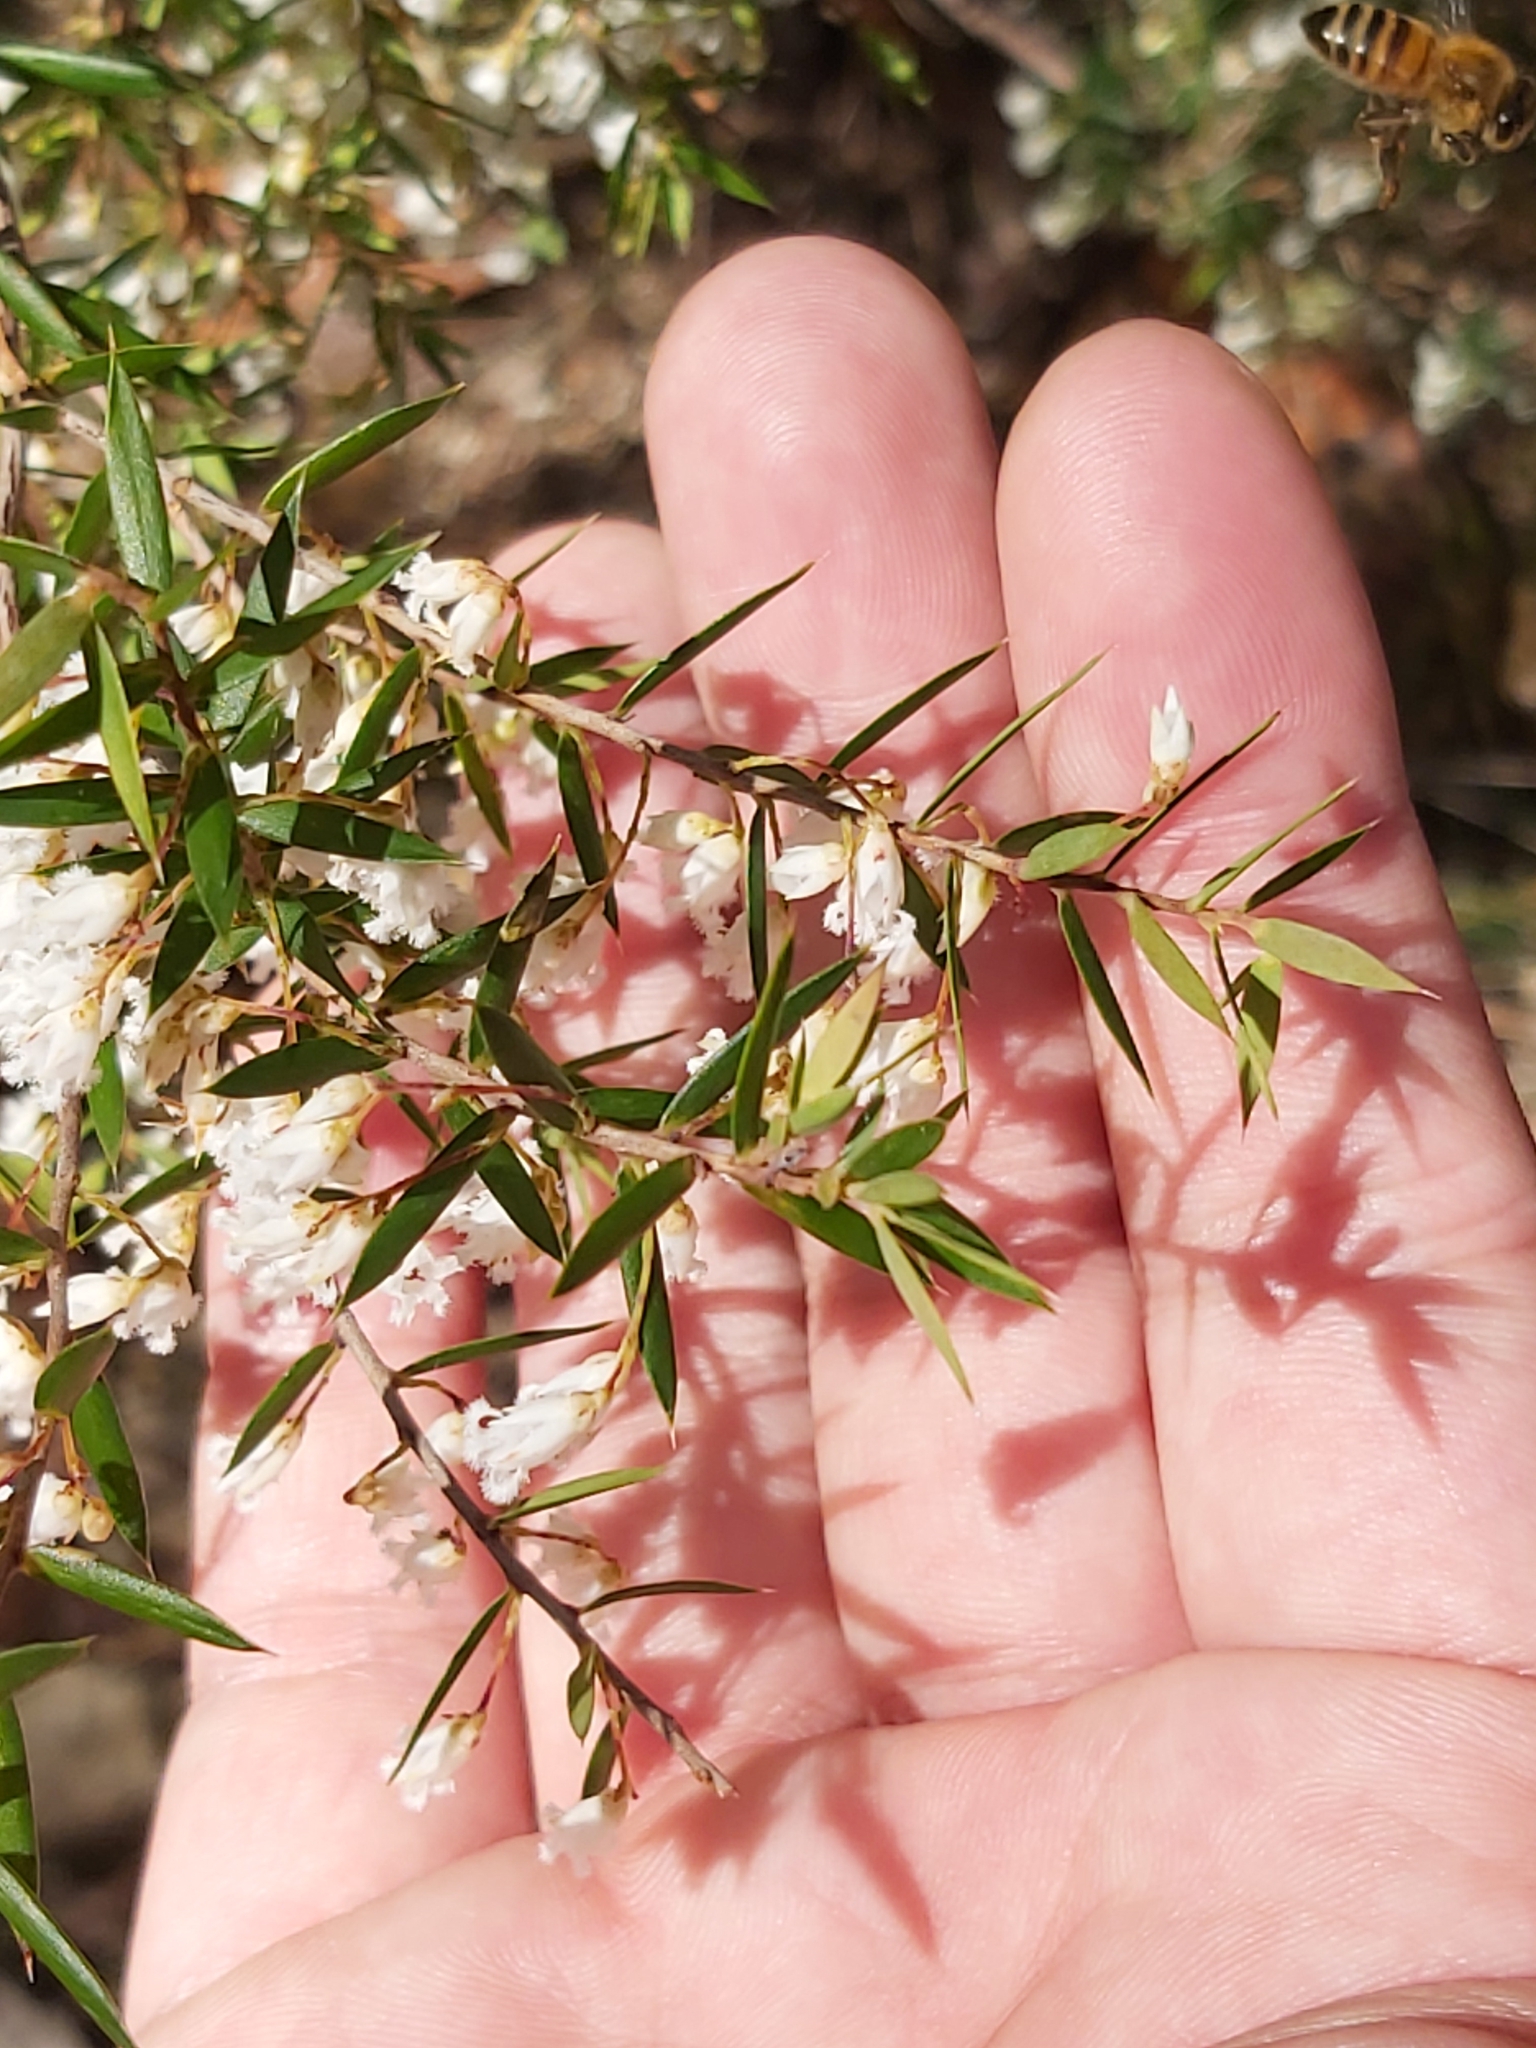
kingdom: Plantae
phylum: Tracheophyta
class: Magnoliopsida
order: Ericales
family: Ericaceae
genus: Styphelia
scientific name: Styphelia setigera
